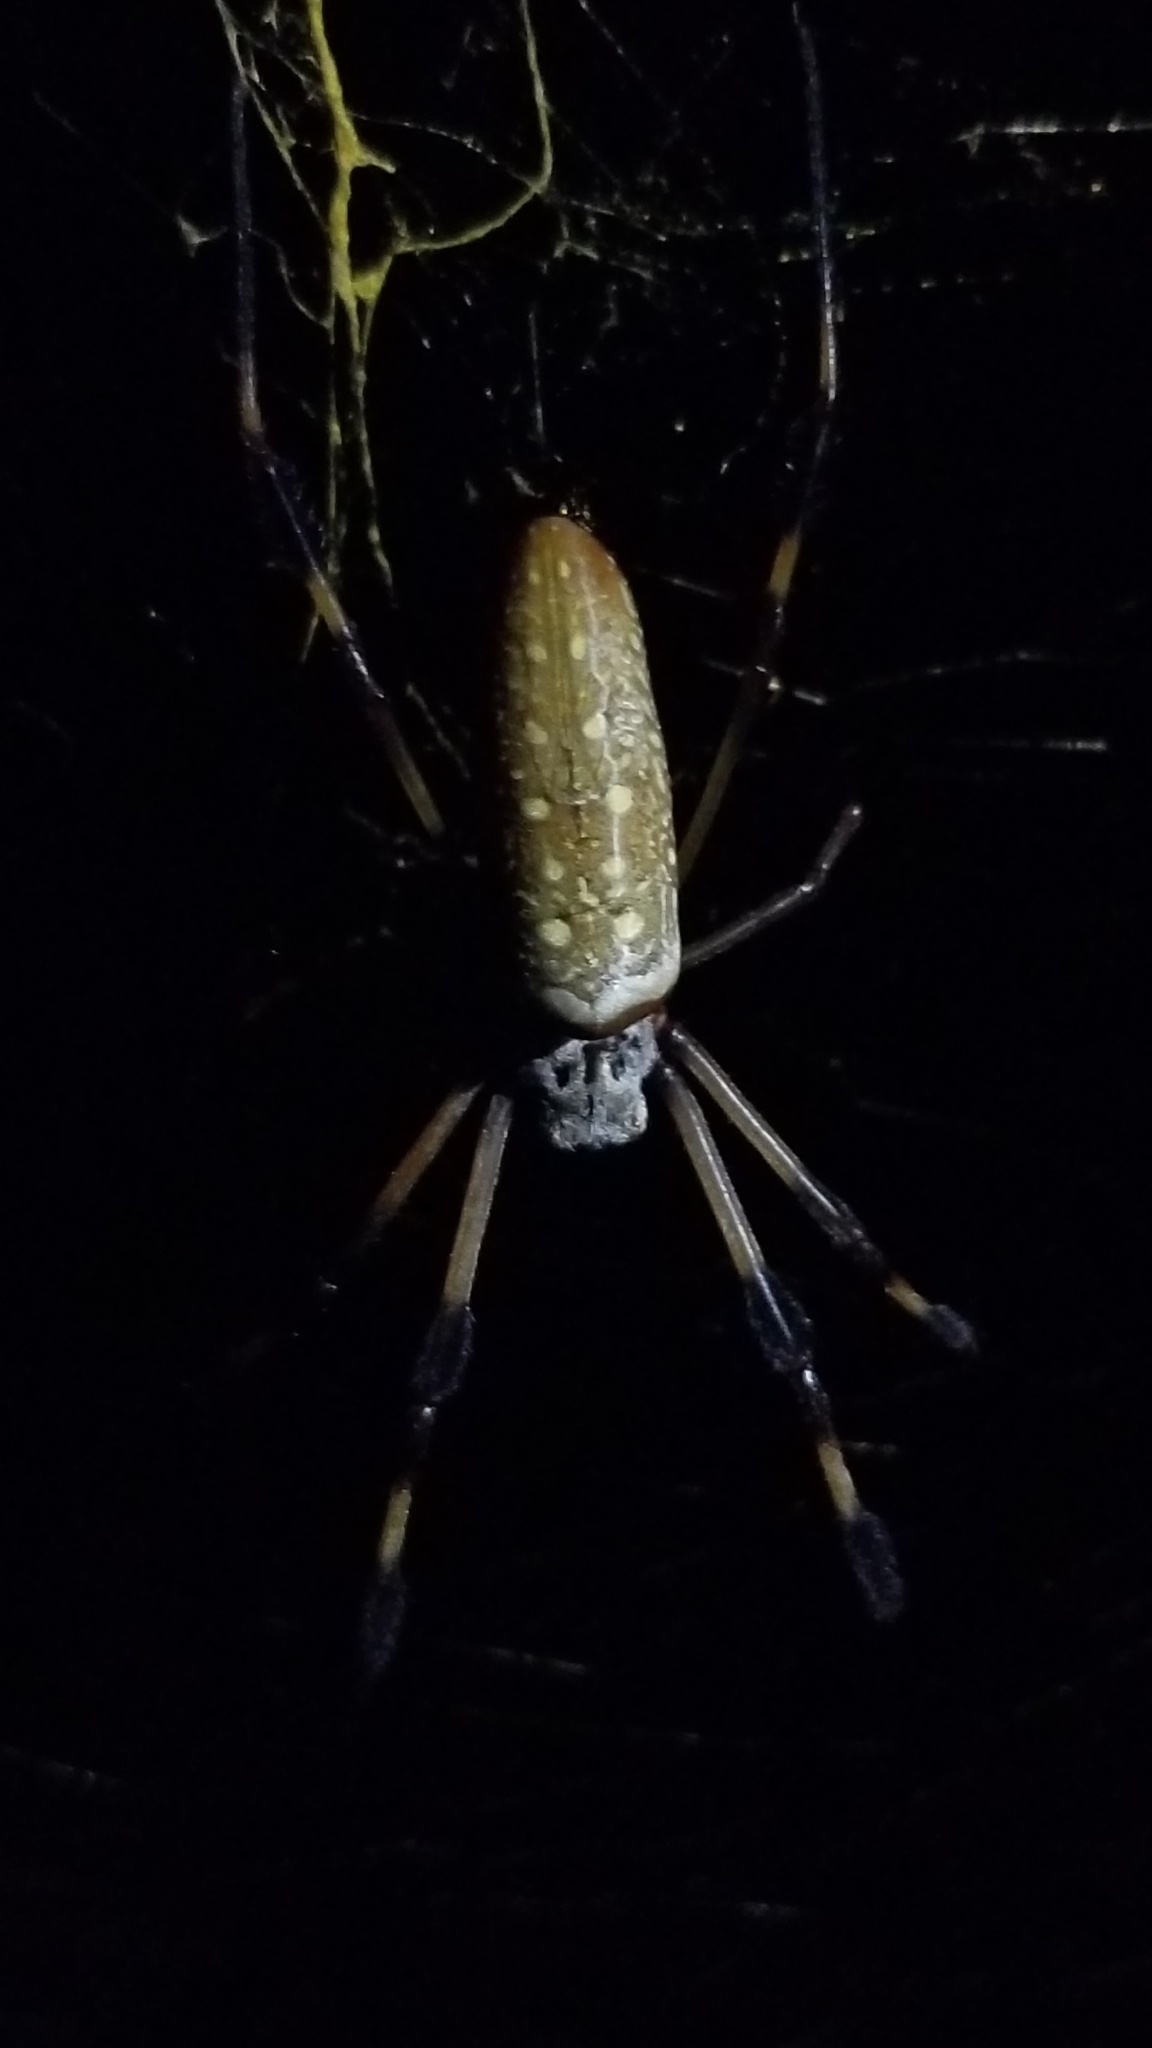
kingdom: Animalia
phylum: Arthropoda
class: Arachnida
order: Araneae
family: Araneidae
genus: Trichonephila
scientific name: Trichonephila clavipes
